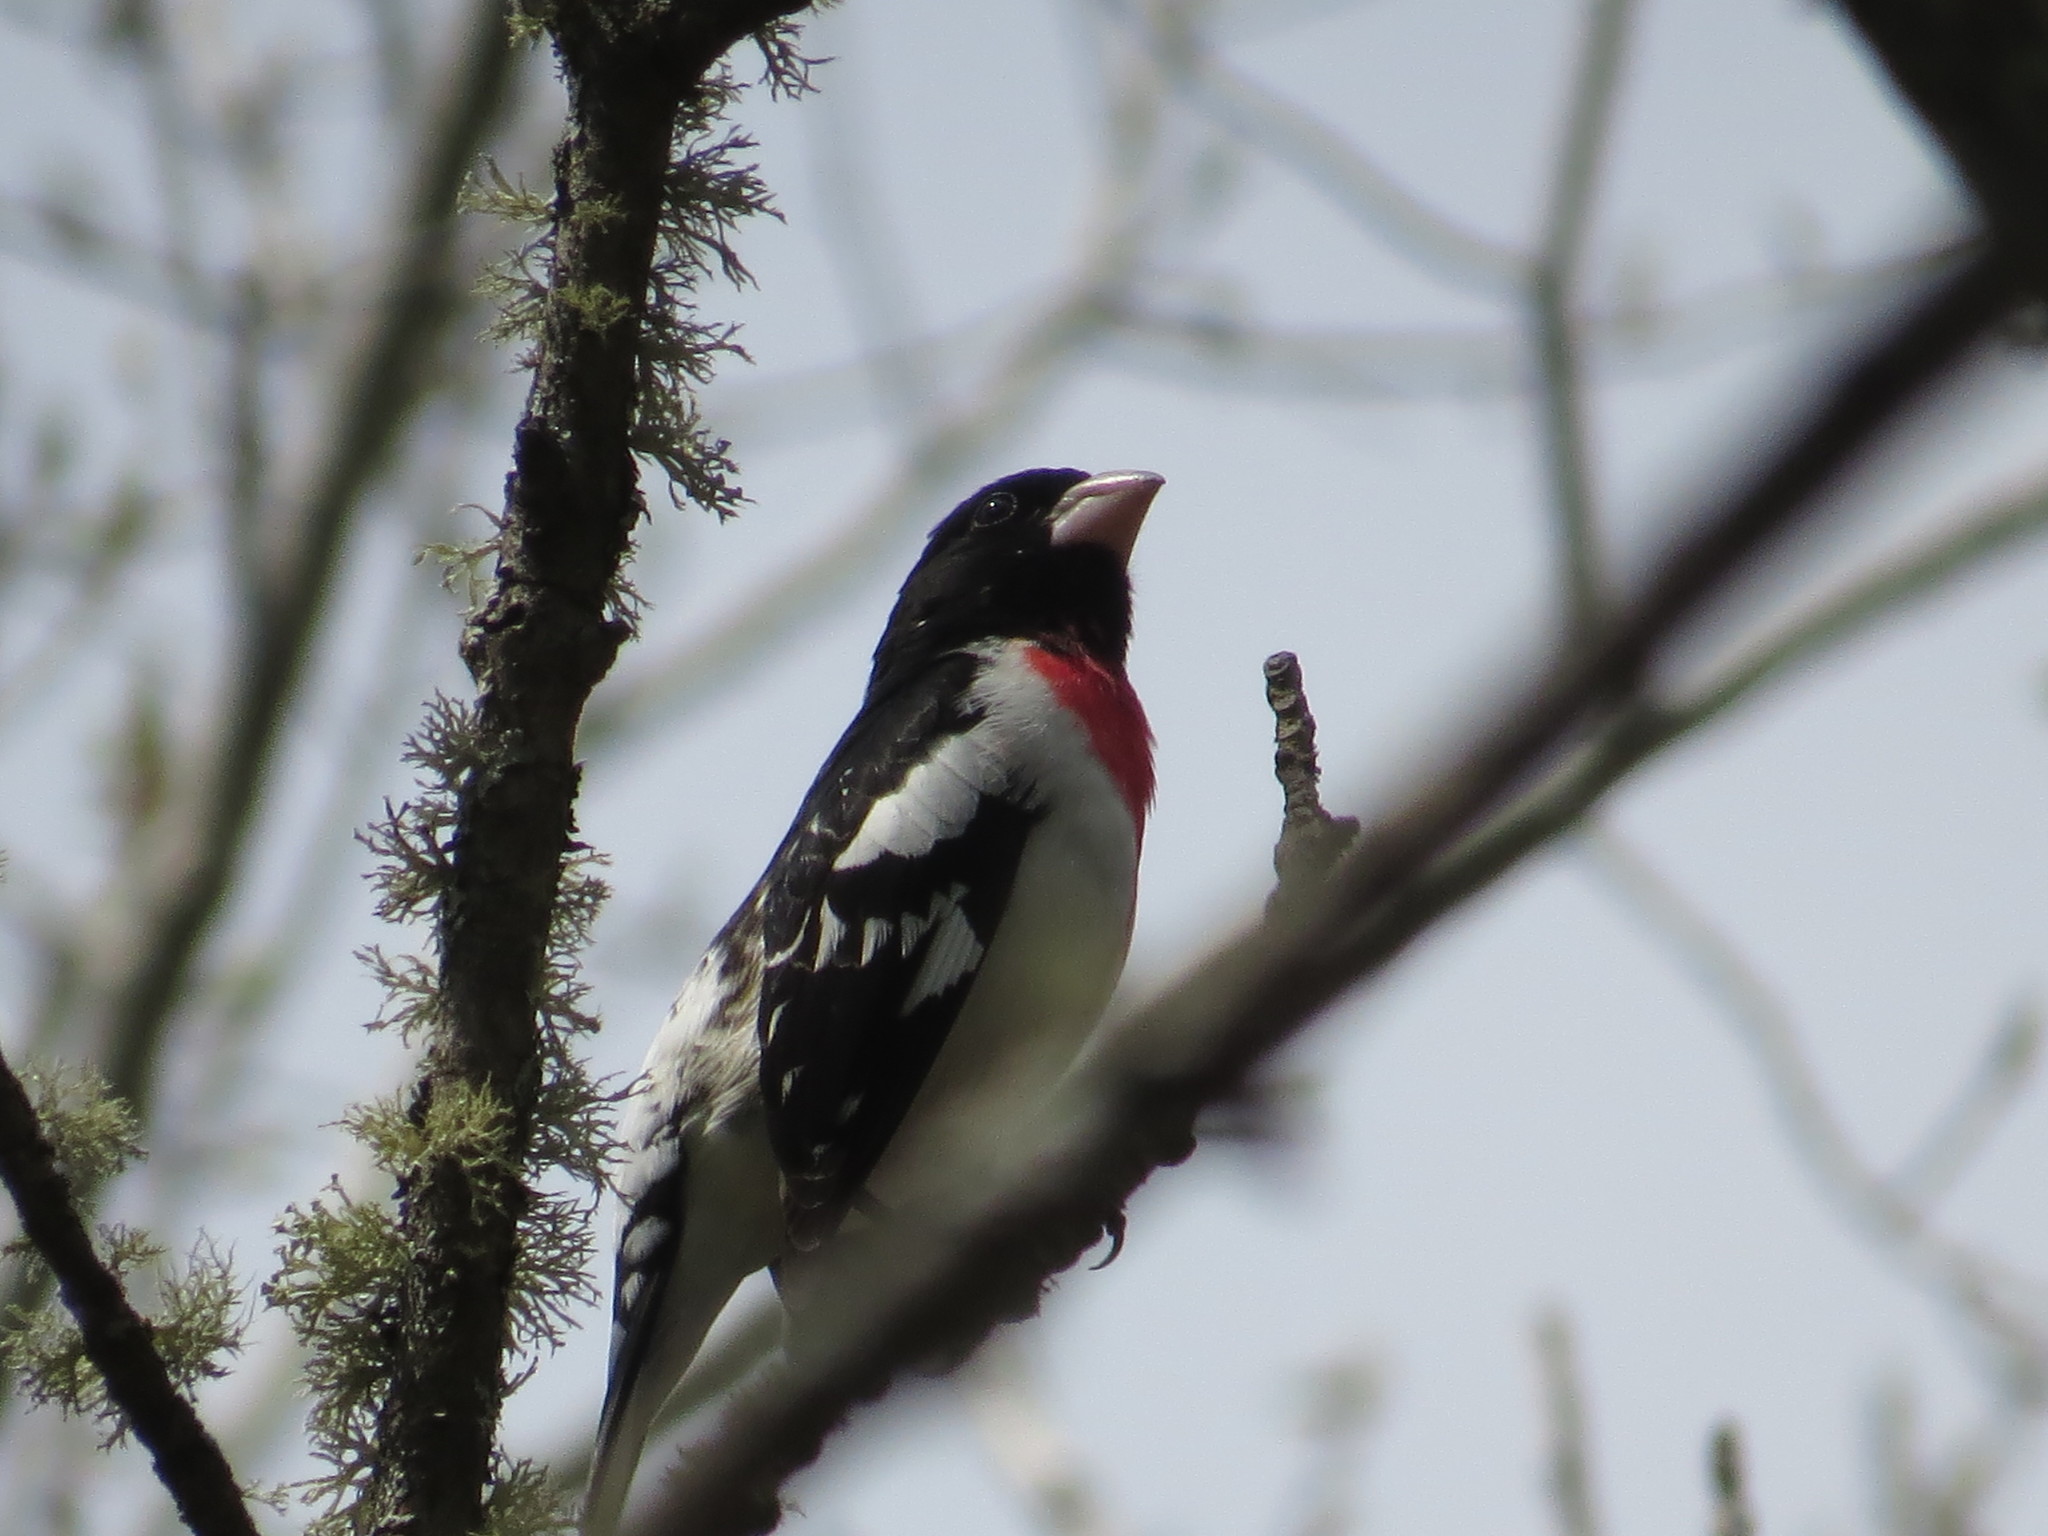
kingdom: Animalia
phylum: Chordata
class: Aves
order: Passeriformes
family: Cardinalidae
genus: Pheucticus
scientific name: Pheucticus ludovicianus
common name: Rose-breasted grosbeak
